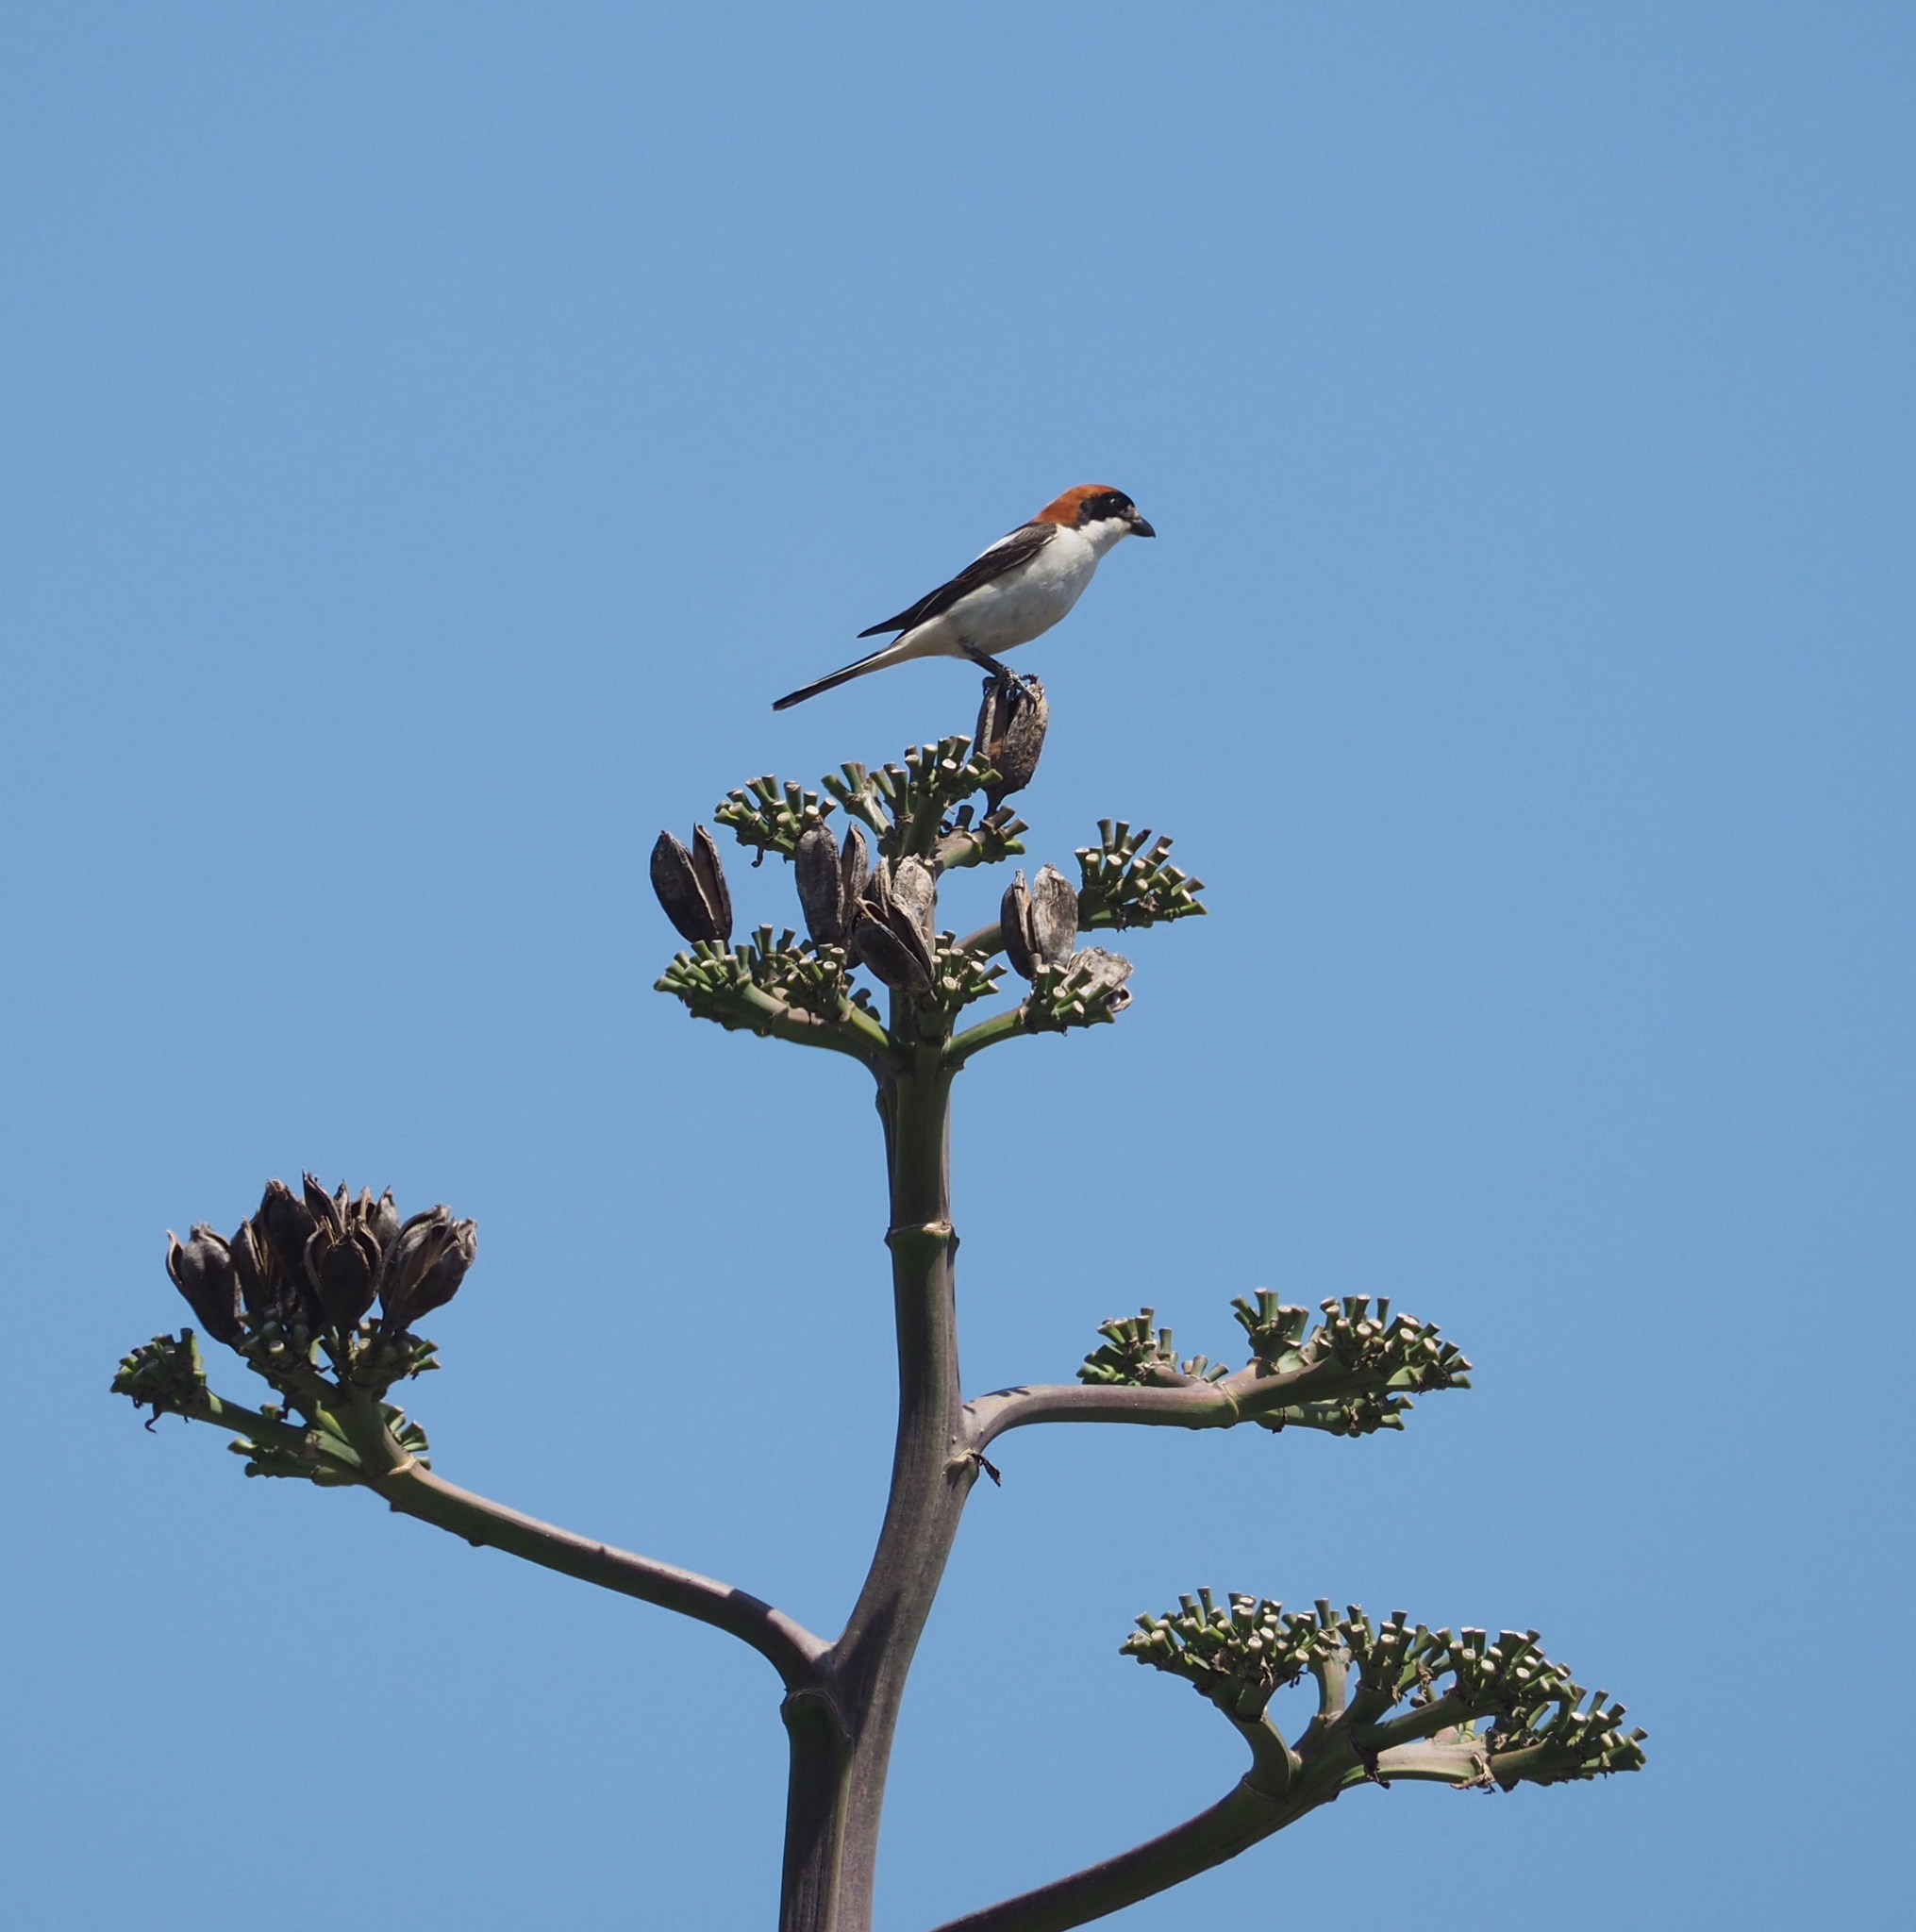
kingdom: Animalia
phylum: Chordata
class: Aves
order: Passeriformes
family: Laniidae
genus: Lanius
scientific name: Lanius senator
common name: Woodchat shrike
